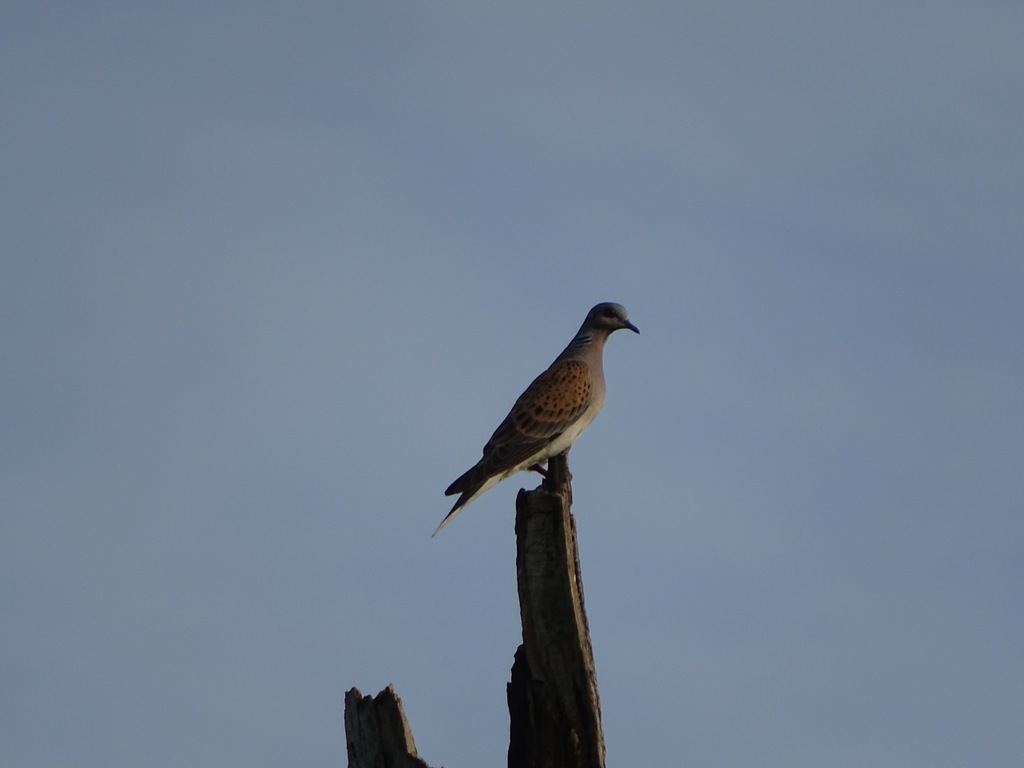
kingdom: Animalia
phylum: Chordata
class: Aves
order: Columbiformes
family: Columbidae
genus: Streptopelia
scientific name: Streptopelia turtur
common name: European turtle dove
